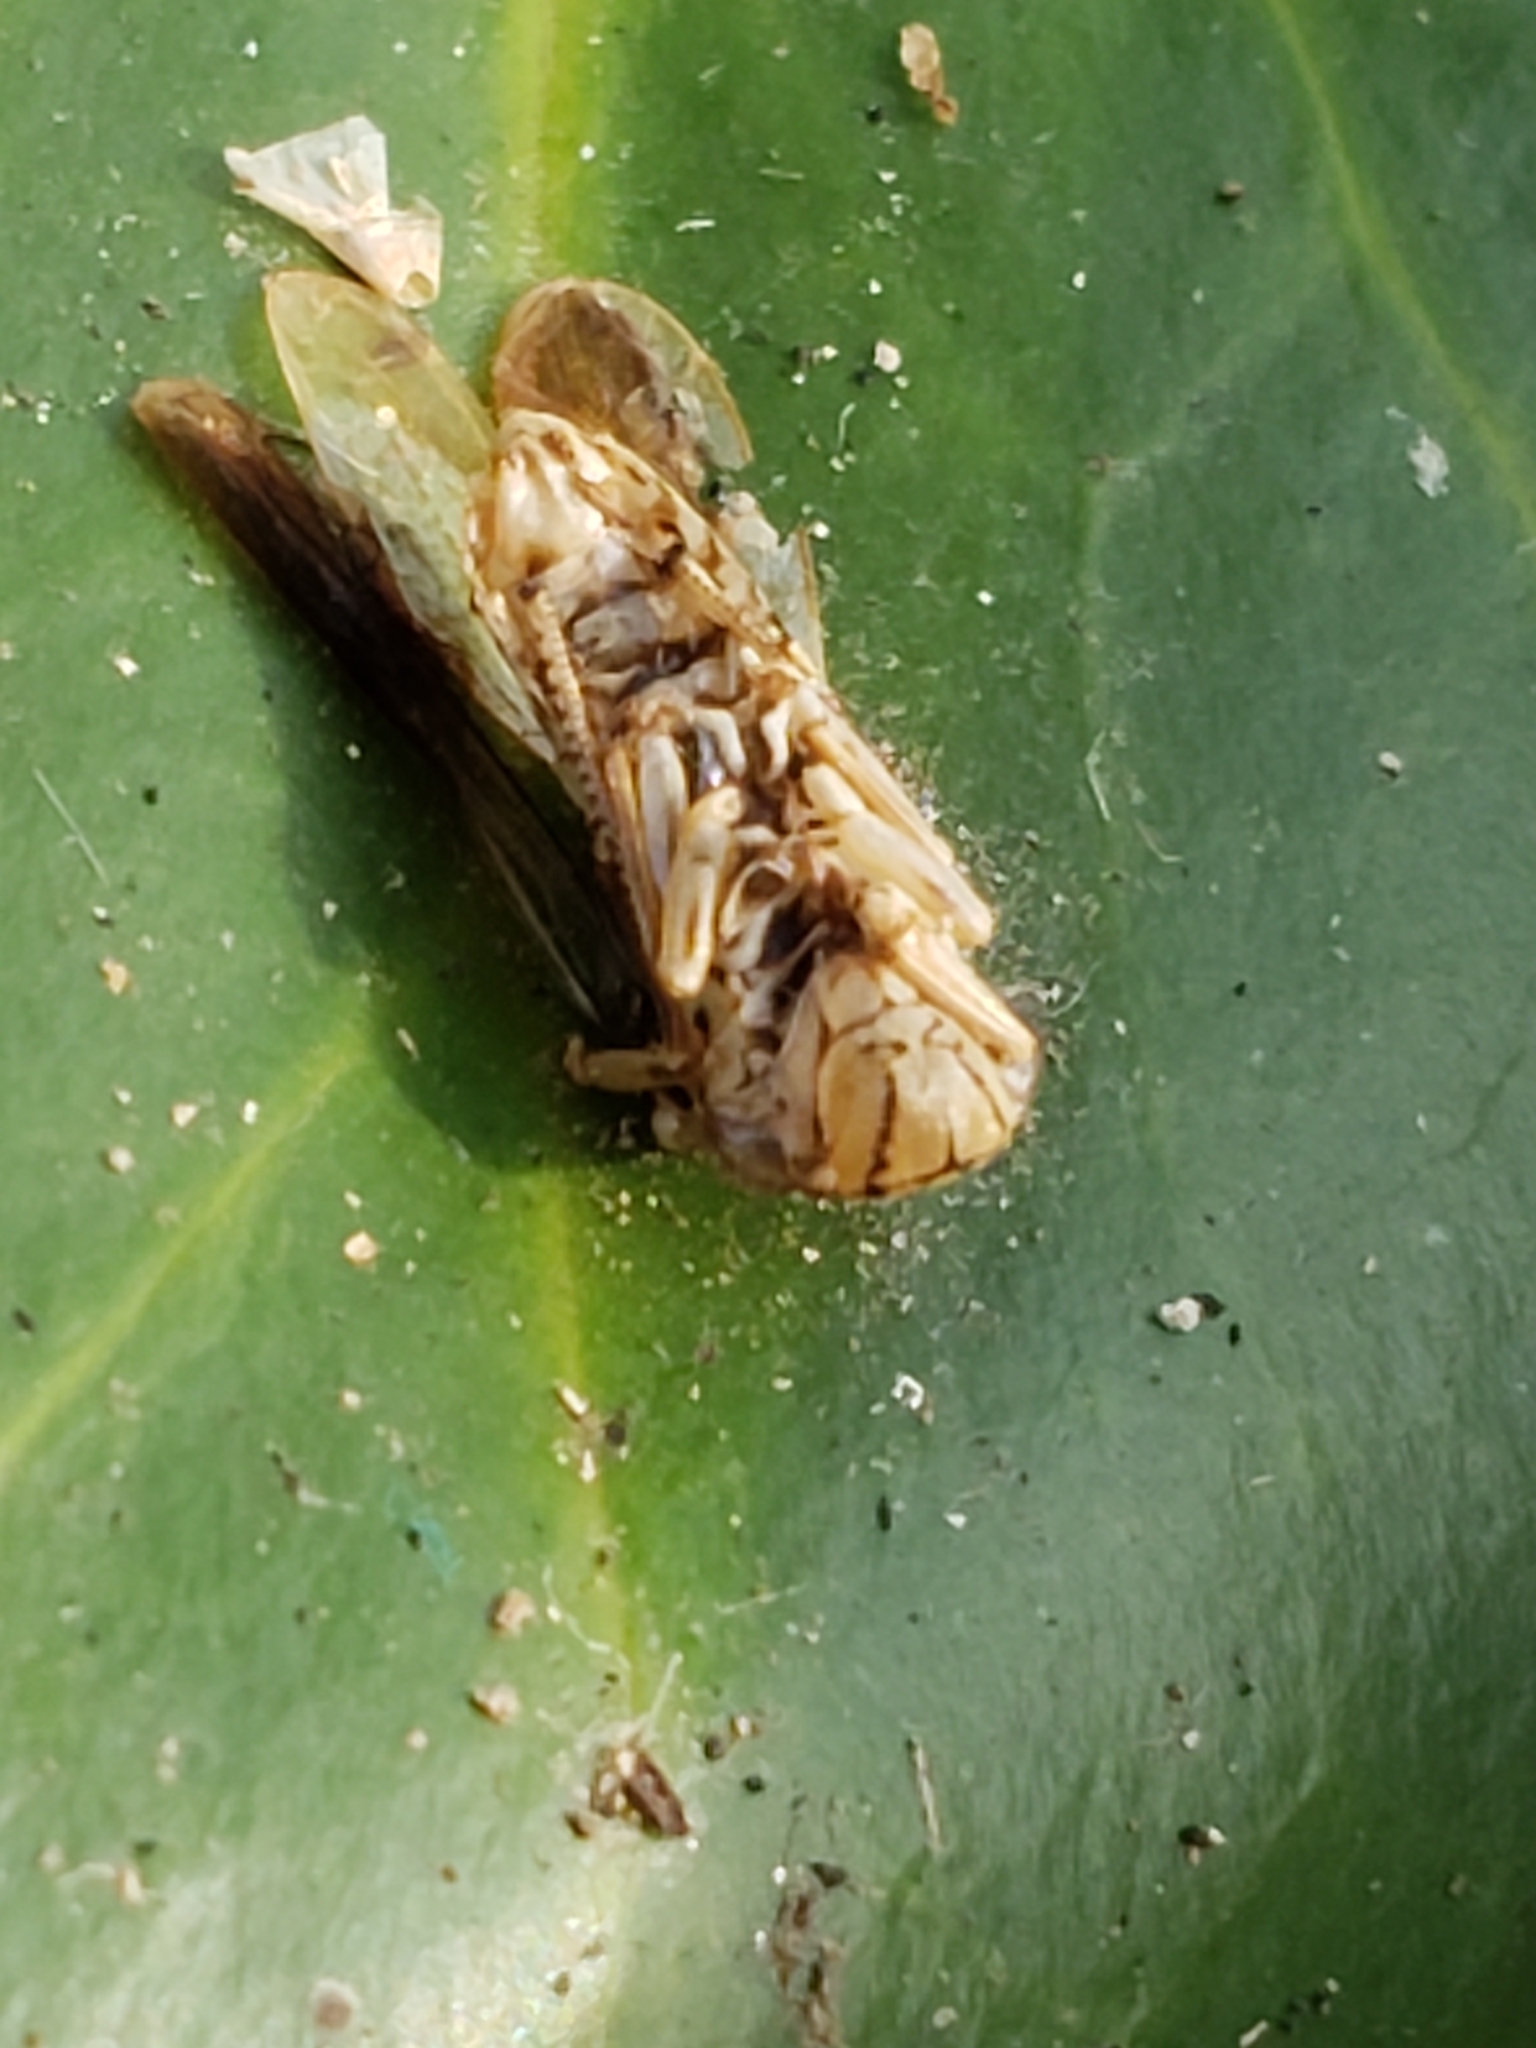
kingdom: Animalia
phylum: Arthropoda
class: Insecta
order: Hemiptera
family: Cicadellidae
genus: Oncometopia
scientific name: Oncometopia orbona
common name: Broad-headed sharpshooter
